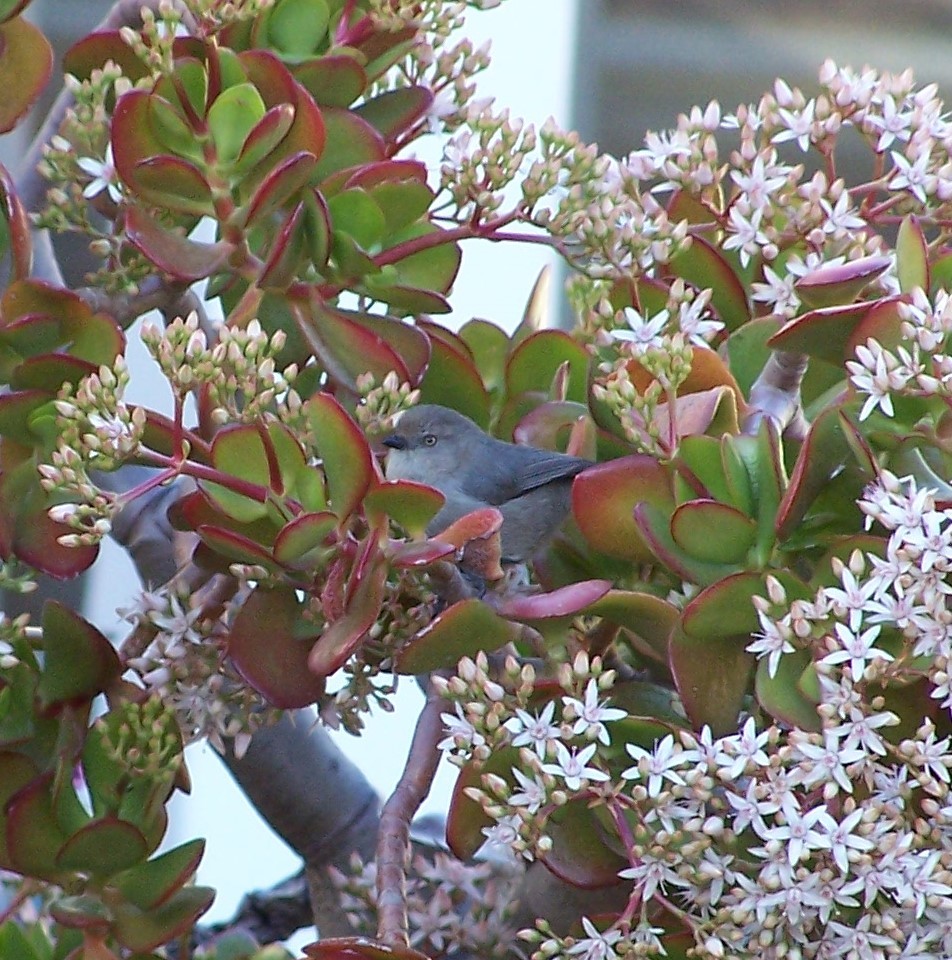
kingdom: Animalia
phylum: Chordata
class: Aves
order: Passeriformes
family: Aegithalidae
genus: Psaltriparus
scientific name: Psaltriparus minimus
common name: American bushtit
